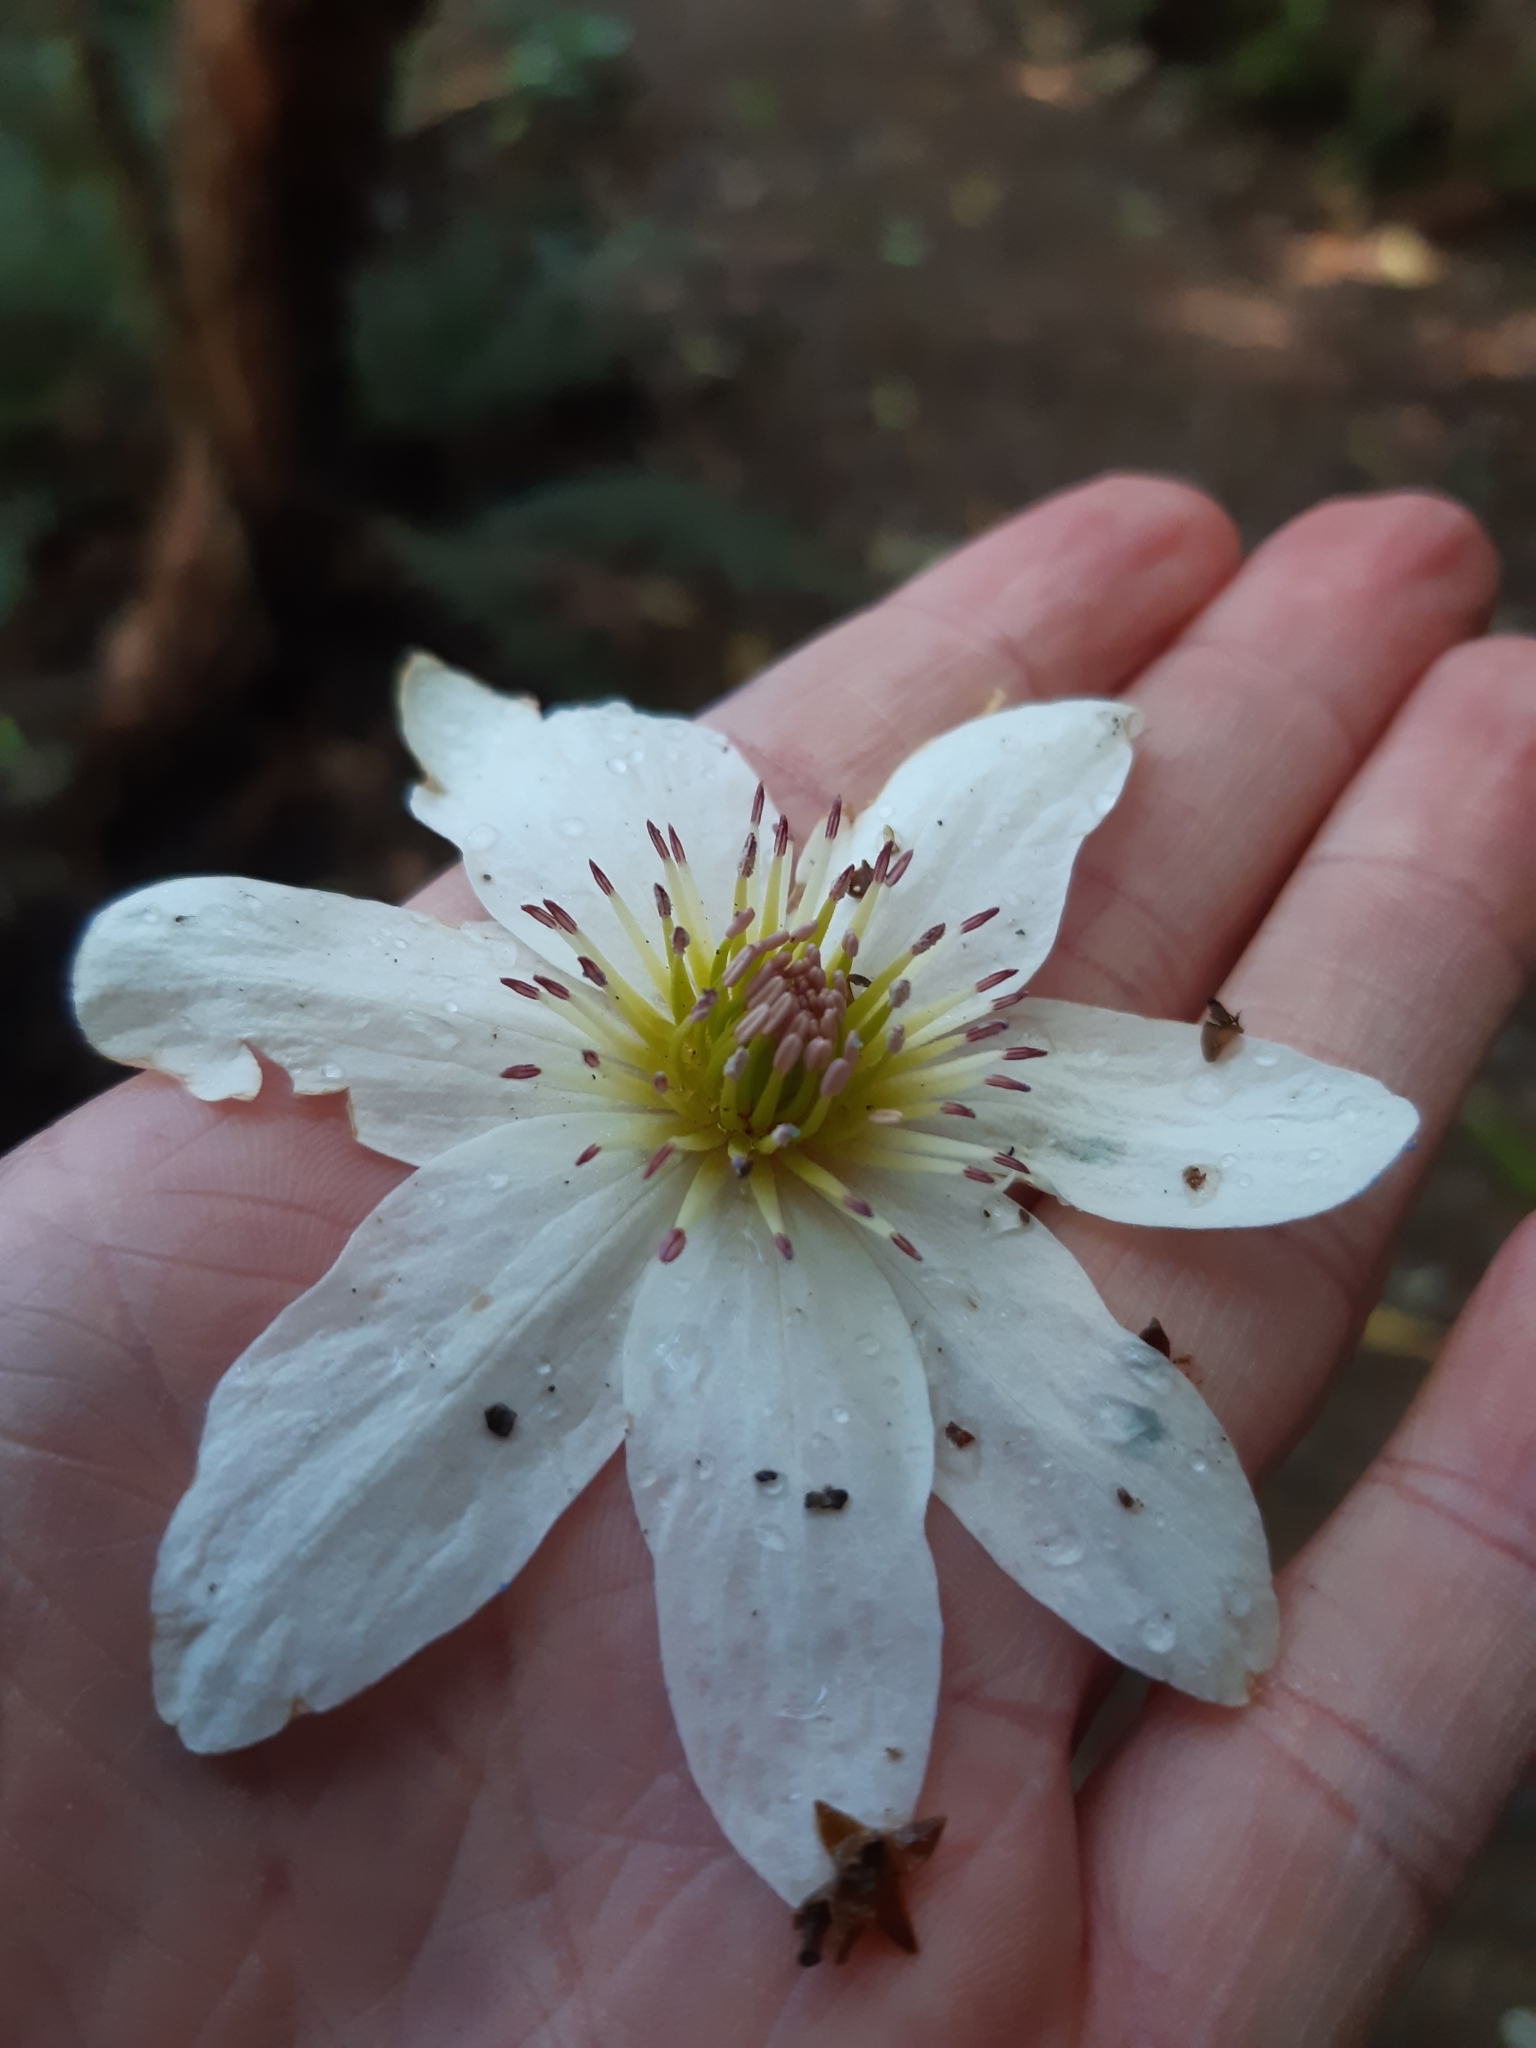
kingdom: Plantae
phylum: Tracheophyta
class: Magnoliopsida
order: Ranunculales
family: Ranunculaceae
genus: Clematis
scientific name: Clematis paniculata
